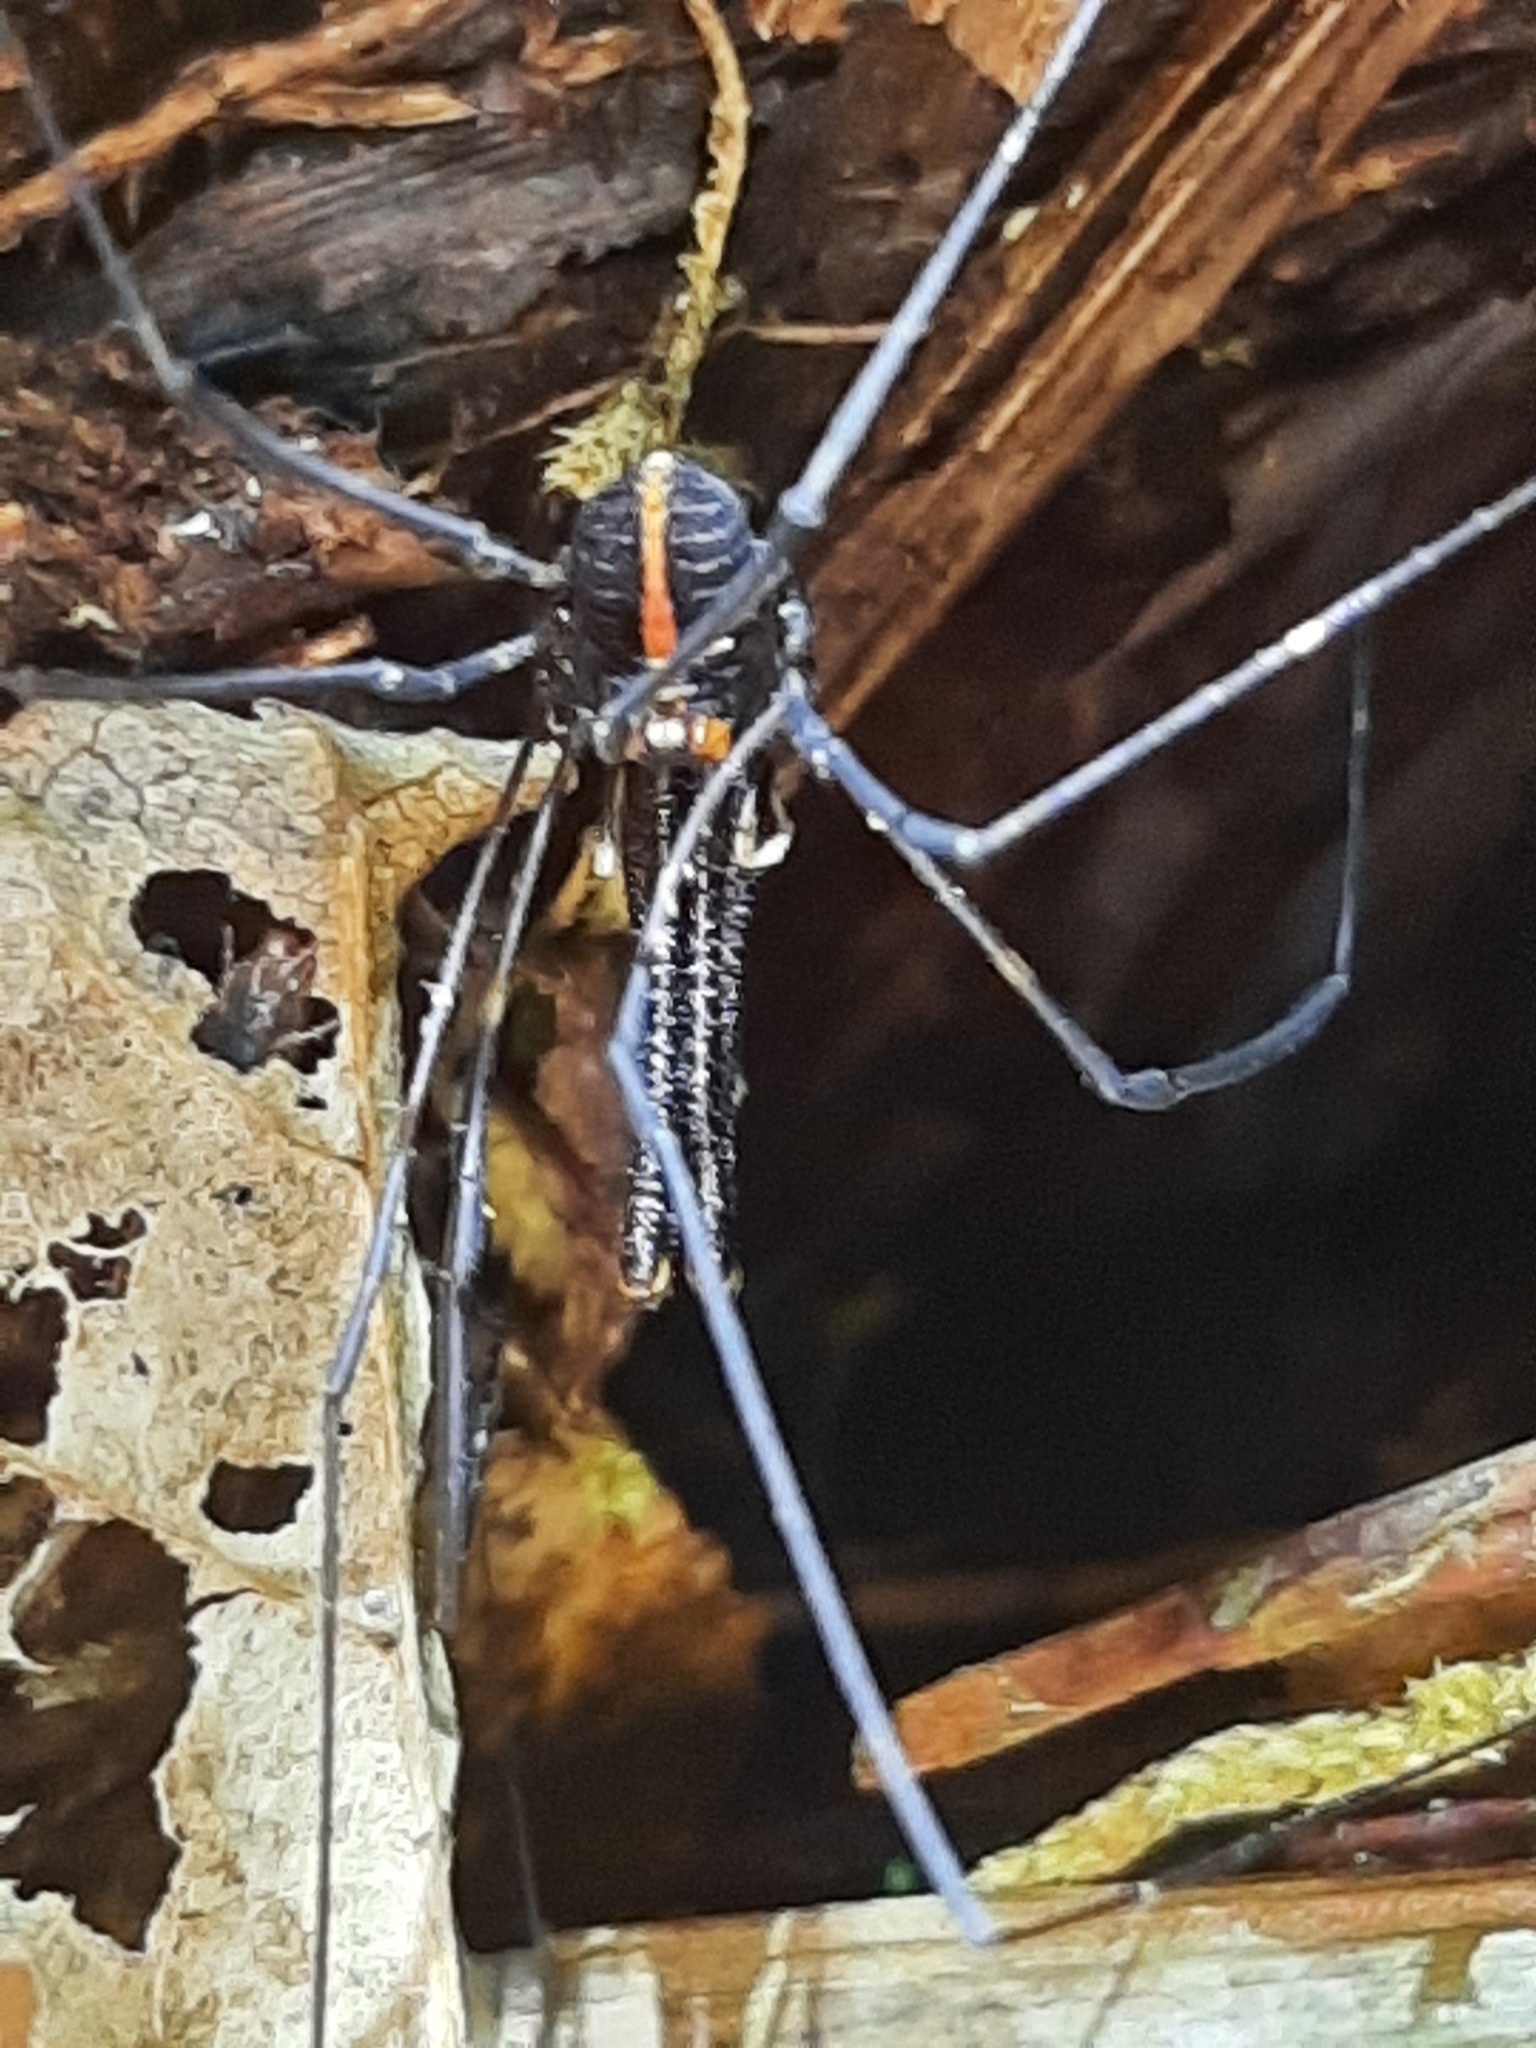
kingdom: Animalia
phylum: Arthropoda
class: Arachnida
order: Opiliones
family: Neopilionidae
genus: Forsteropsalis
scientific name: Forsteropsalis pureora
